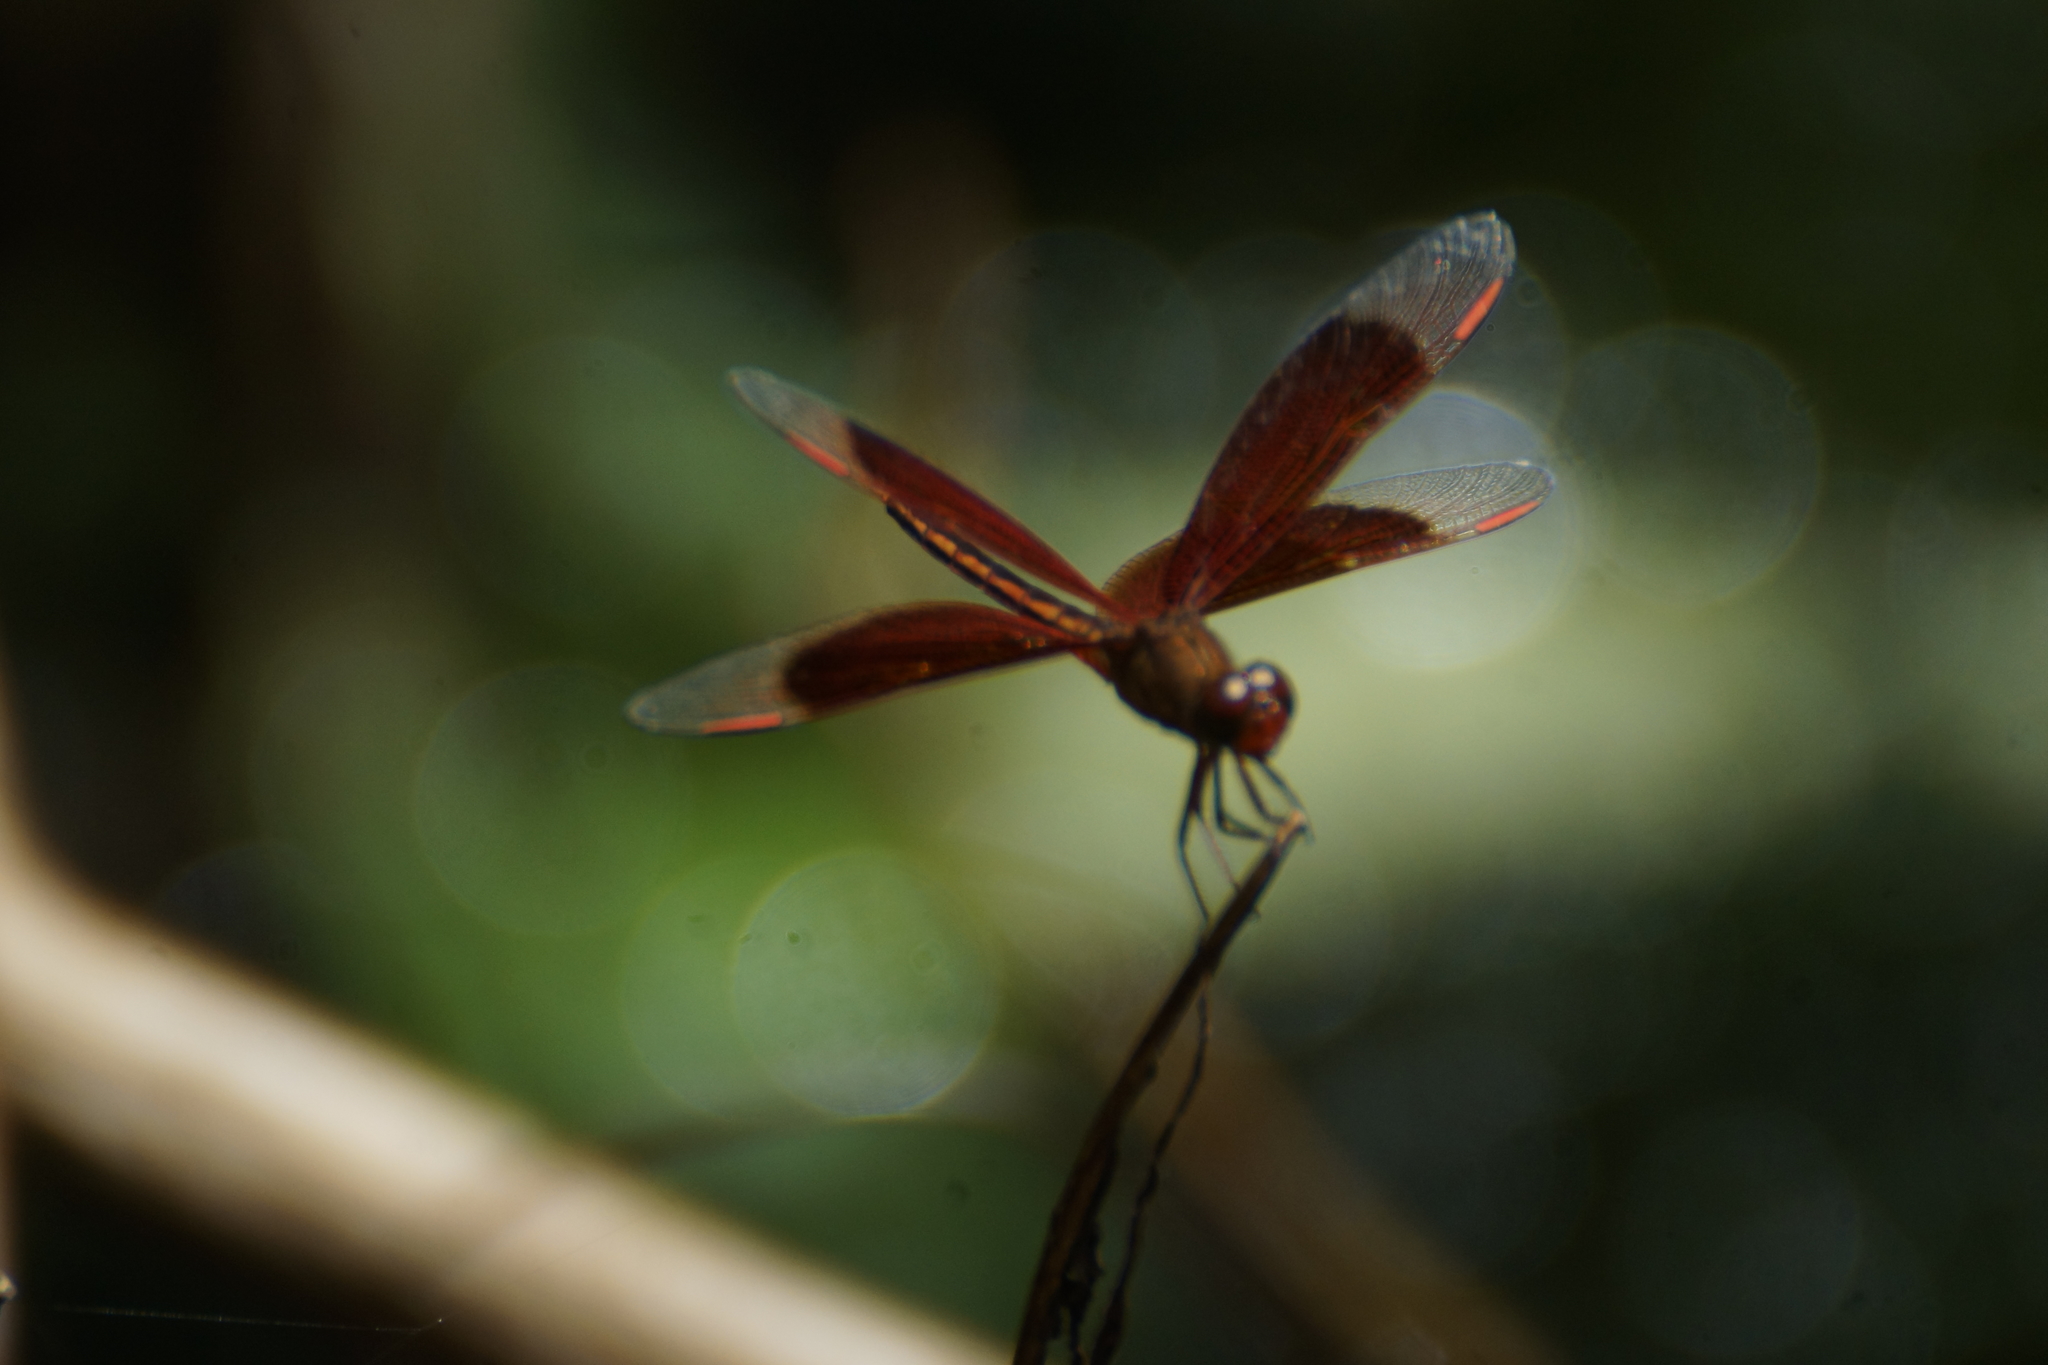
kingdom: Animalia
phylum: Arthropoda
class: Insecta
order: Odonata
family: Libellulidae
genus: Neurothemis
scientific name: Neurothemis stigmatizans
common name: Painted grasshawk
